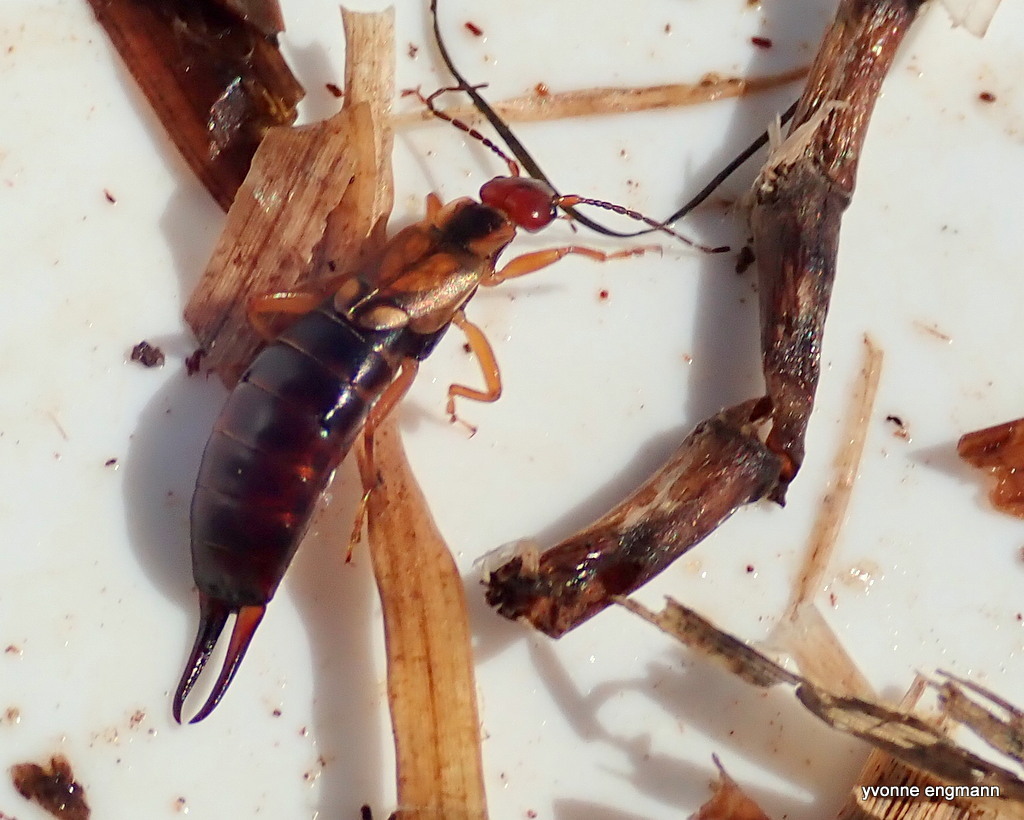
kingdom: Animalia
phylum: Arthropoda
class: Insecta
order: Dermaptera
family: Forficulidae
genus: Forficula
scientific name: Forficula
